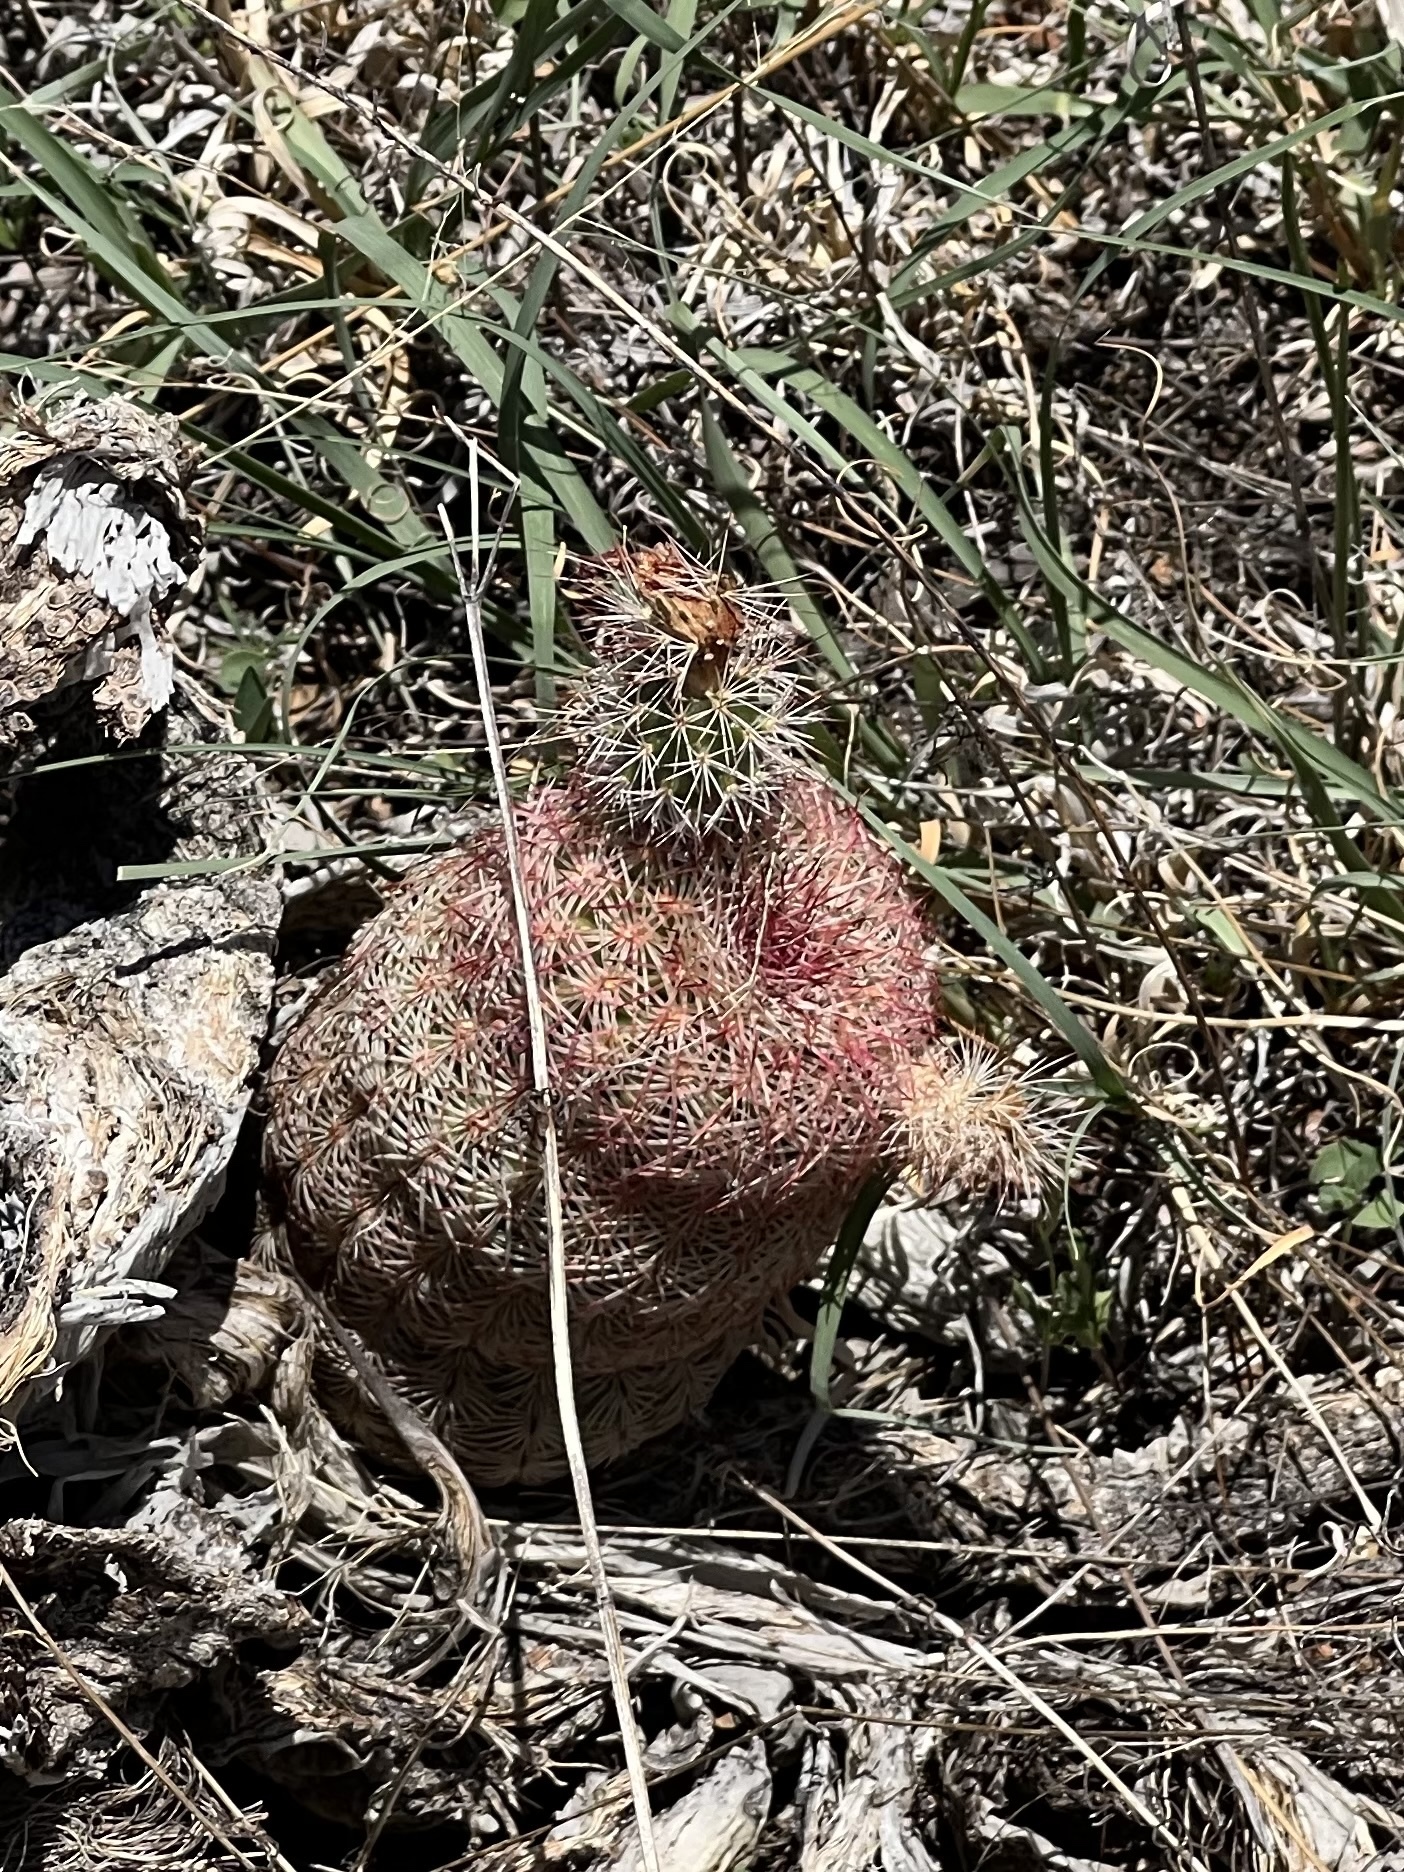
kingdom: Plantae
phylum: Tracheophyta
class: Magnoliopsida
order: Caryophyllales
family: Cactaceae
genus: Echinocereus
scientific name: Echinocereus rigidissimus
